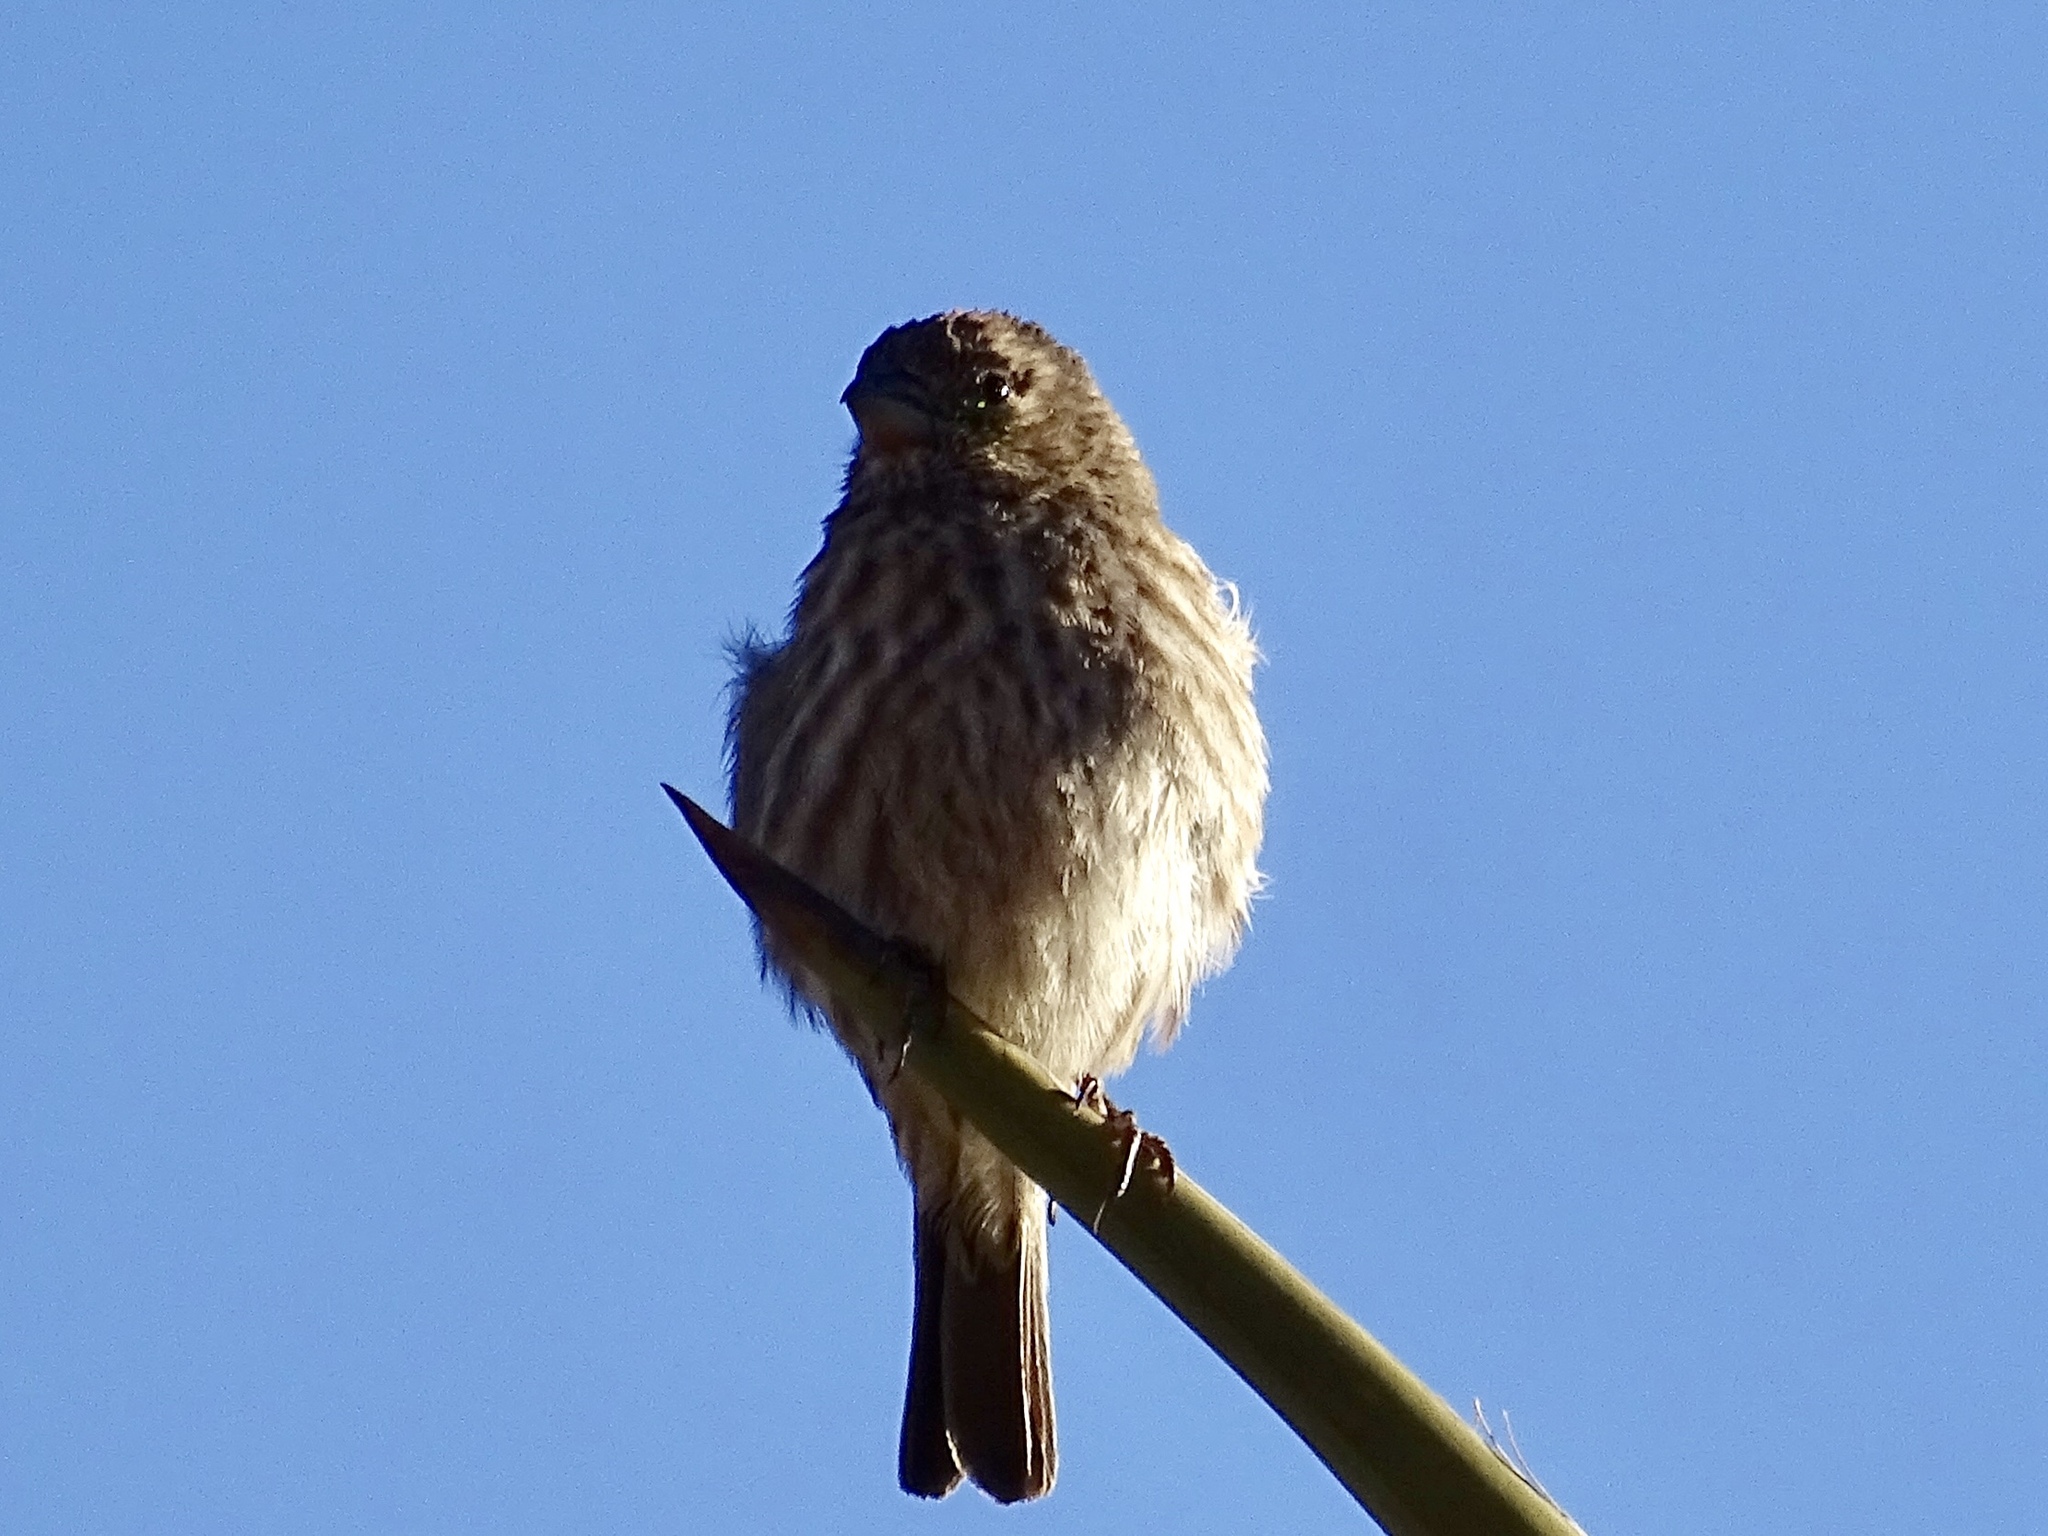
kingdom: Animalia
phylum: Chordata
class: Aves
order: Passeriformes
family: Fringillidae
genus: Haemorhous
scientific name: Haemorhous mexicanus
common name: House finch
